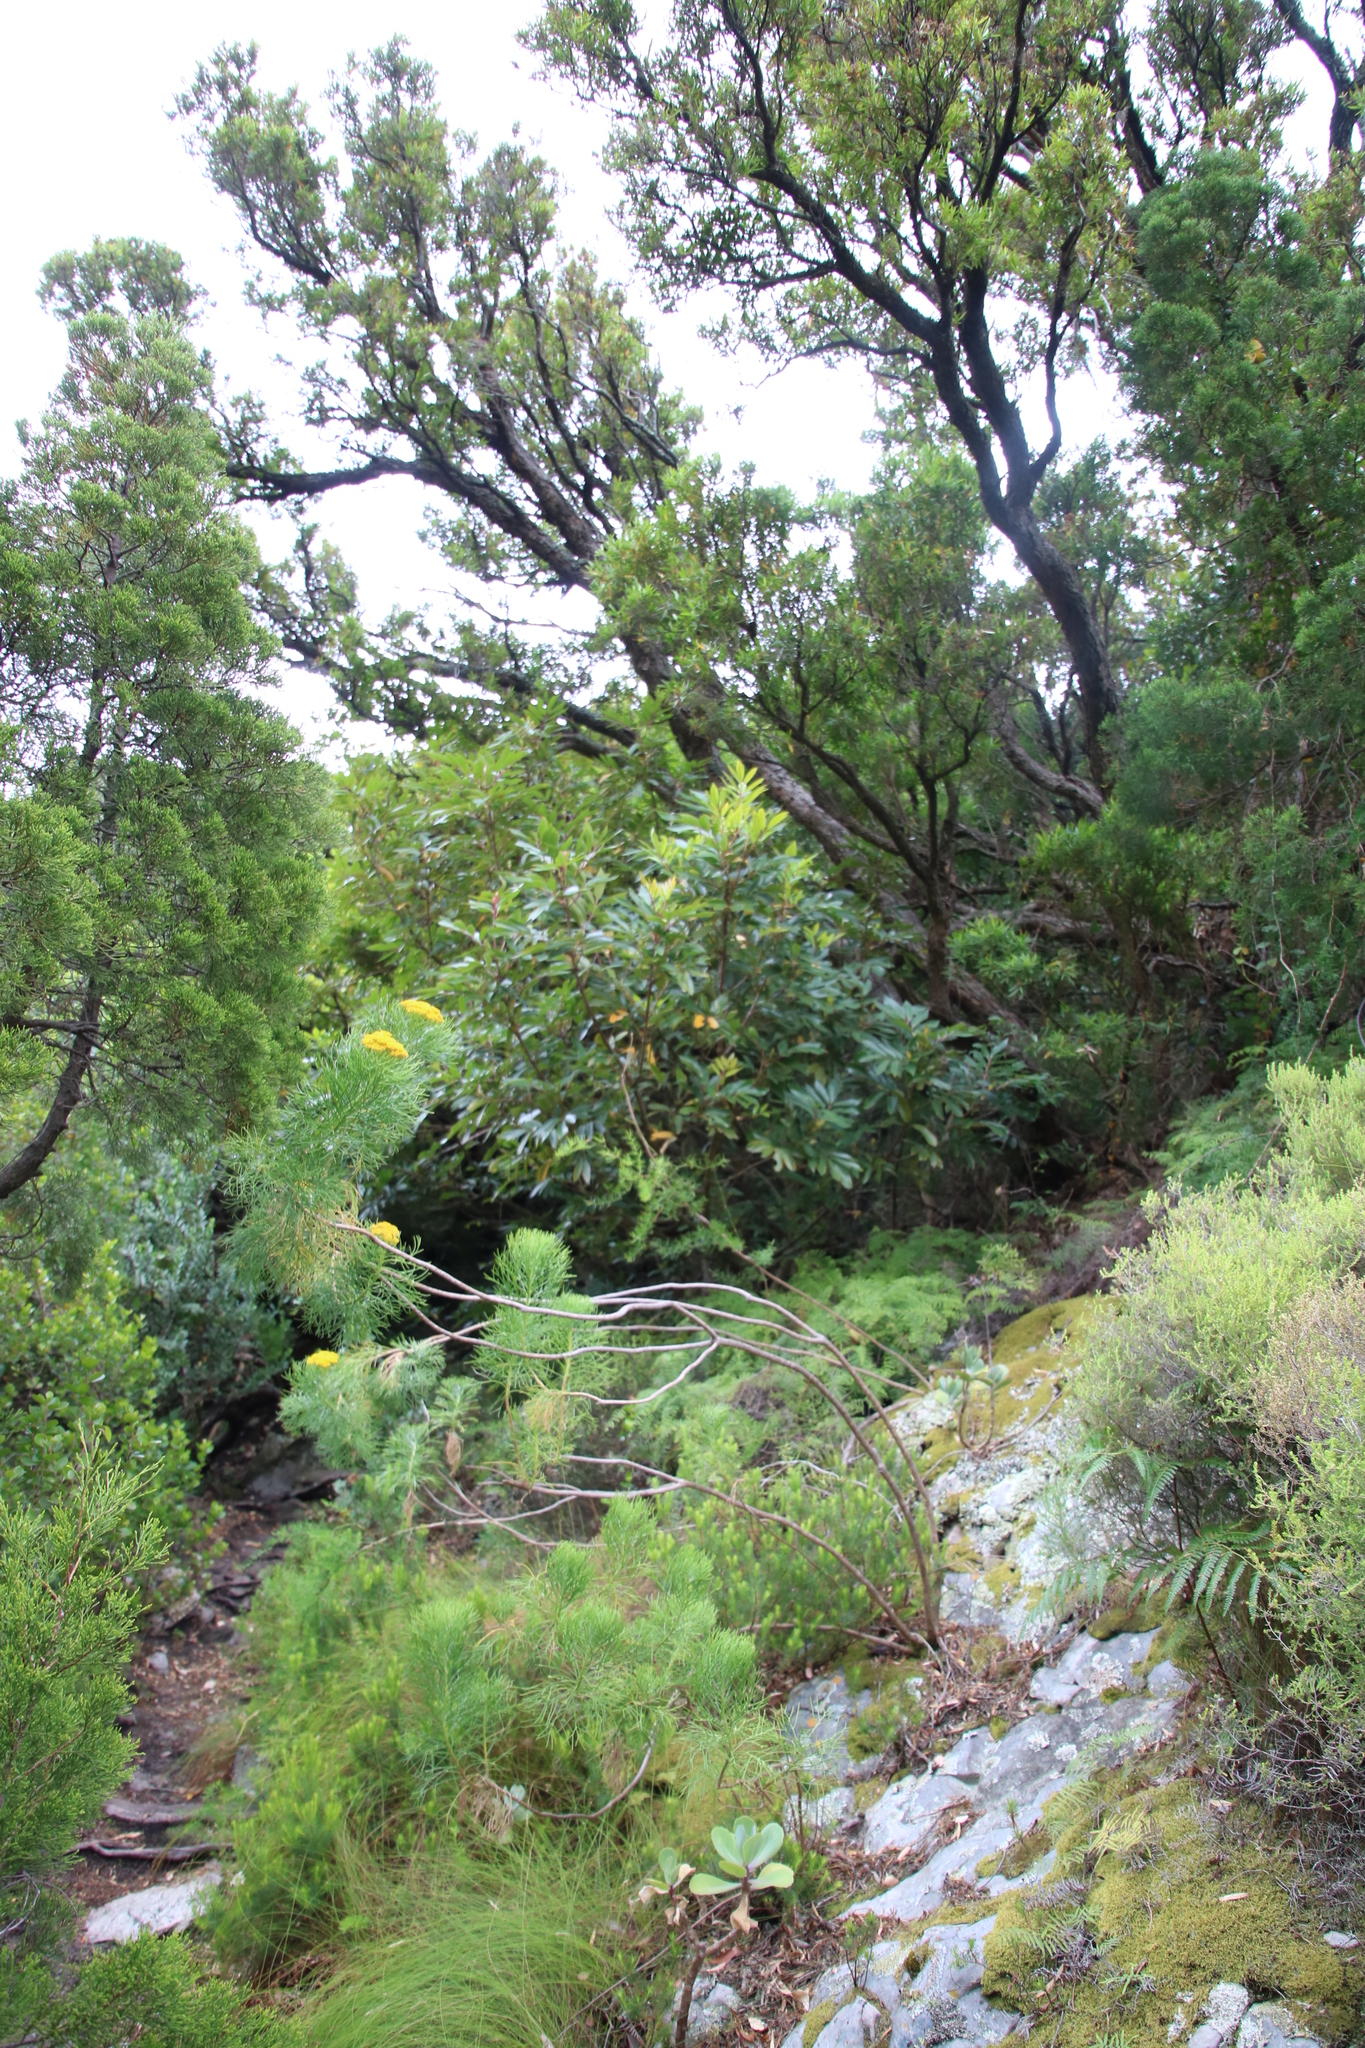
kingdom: Plantae
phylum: Tracheophyta
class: Magnoliopsida
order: Oxalidales
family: Cunoniaceae
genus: Cunonia
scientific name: Cunonia capensis
